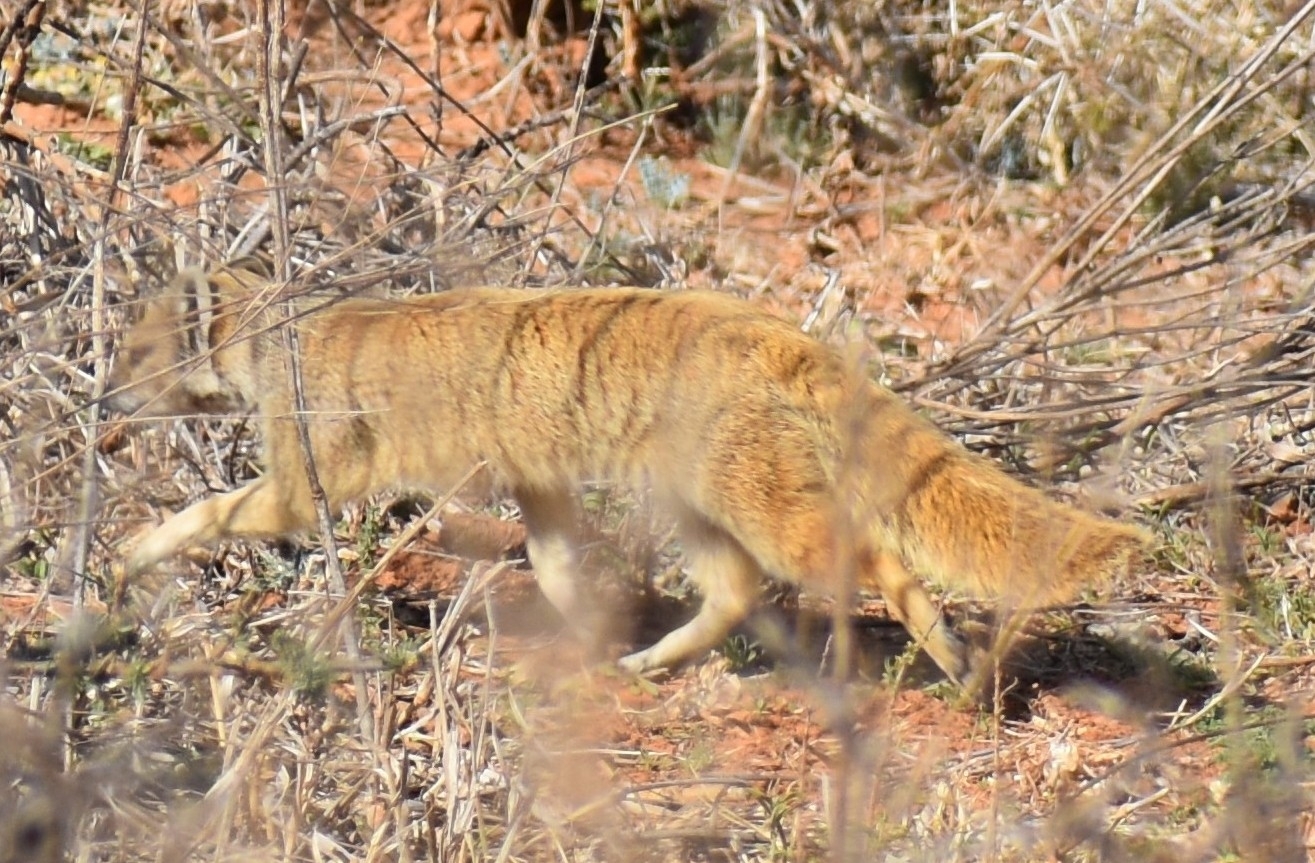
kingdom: Animalia
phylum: Chordata
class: Mammalia
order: Carnivora
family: Herpestidae
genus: Cynictis
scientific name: Cynictis penicillata
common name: Yellow mongoose
